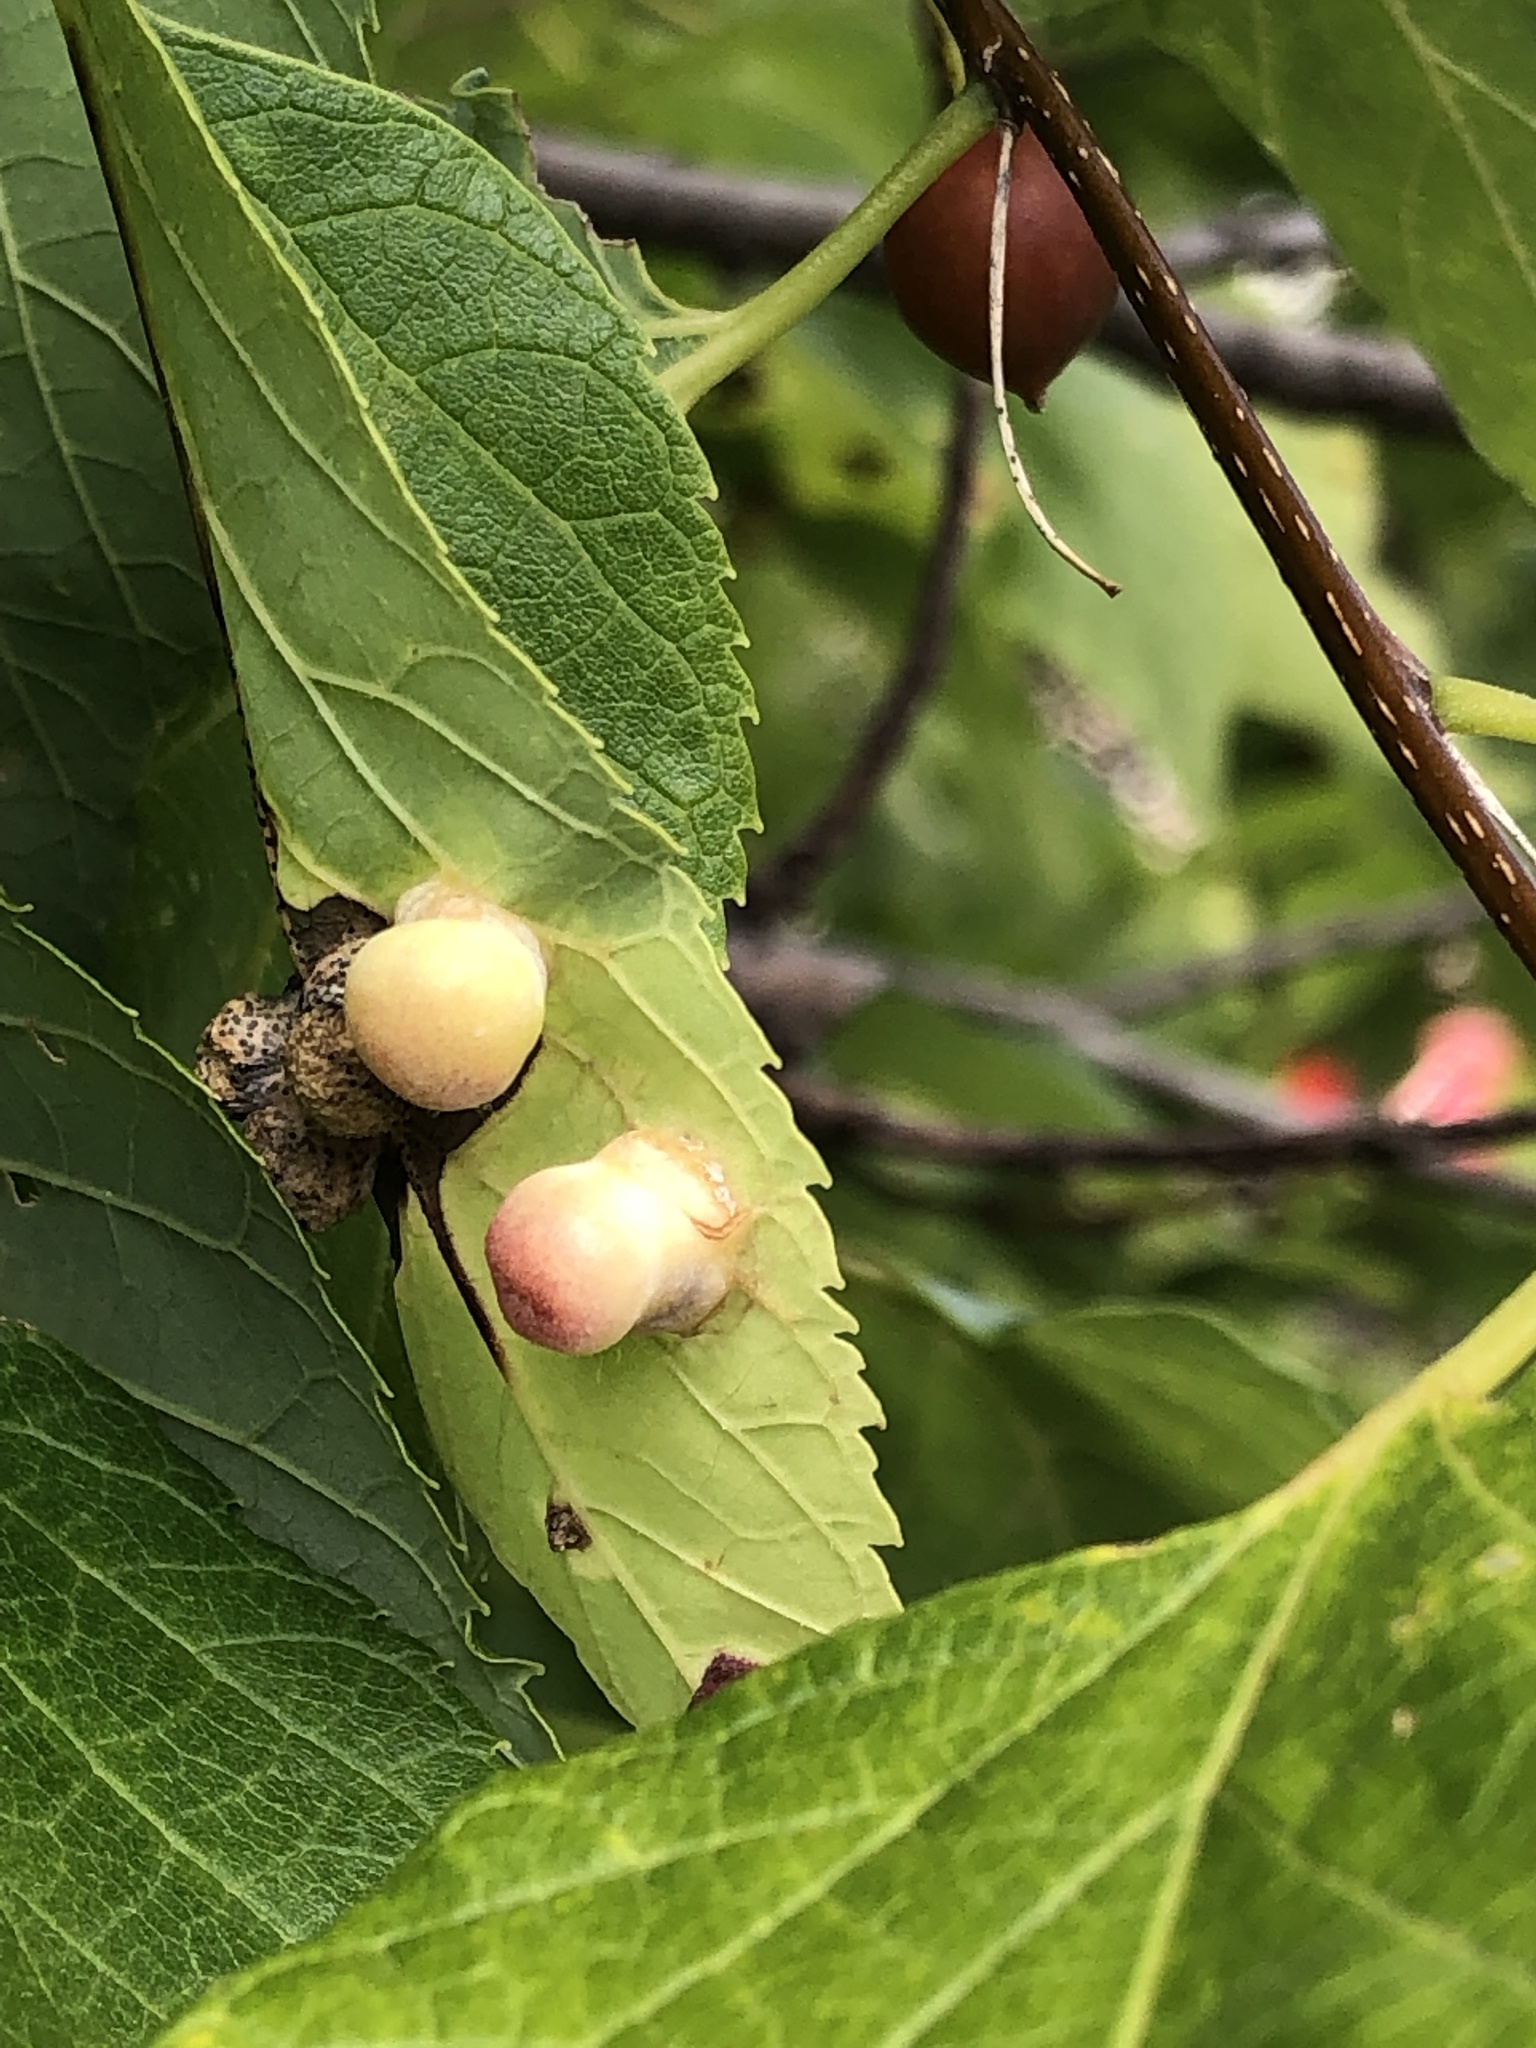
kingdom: Animalia
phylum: Arthropoda
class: Insecta
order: Hemiptera
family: Aphalaridae
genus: Pachypsylla
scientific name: Pachypsylla celtidismamma
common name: Hackberry nipplegall psyllid
